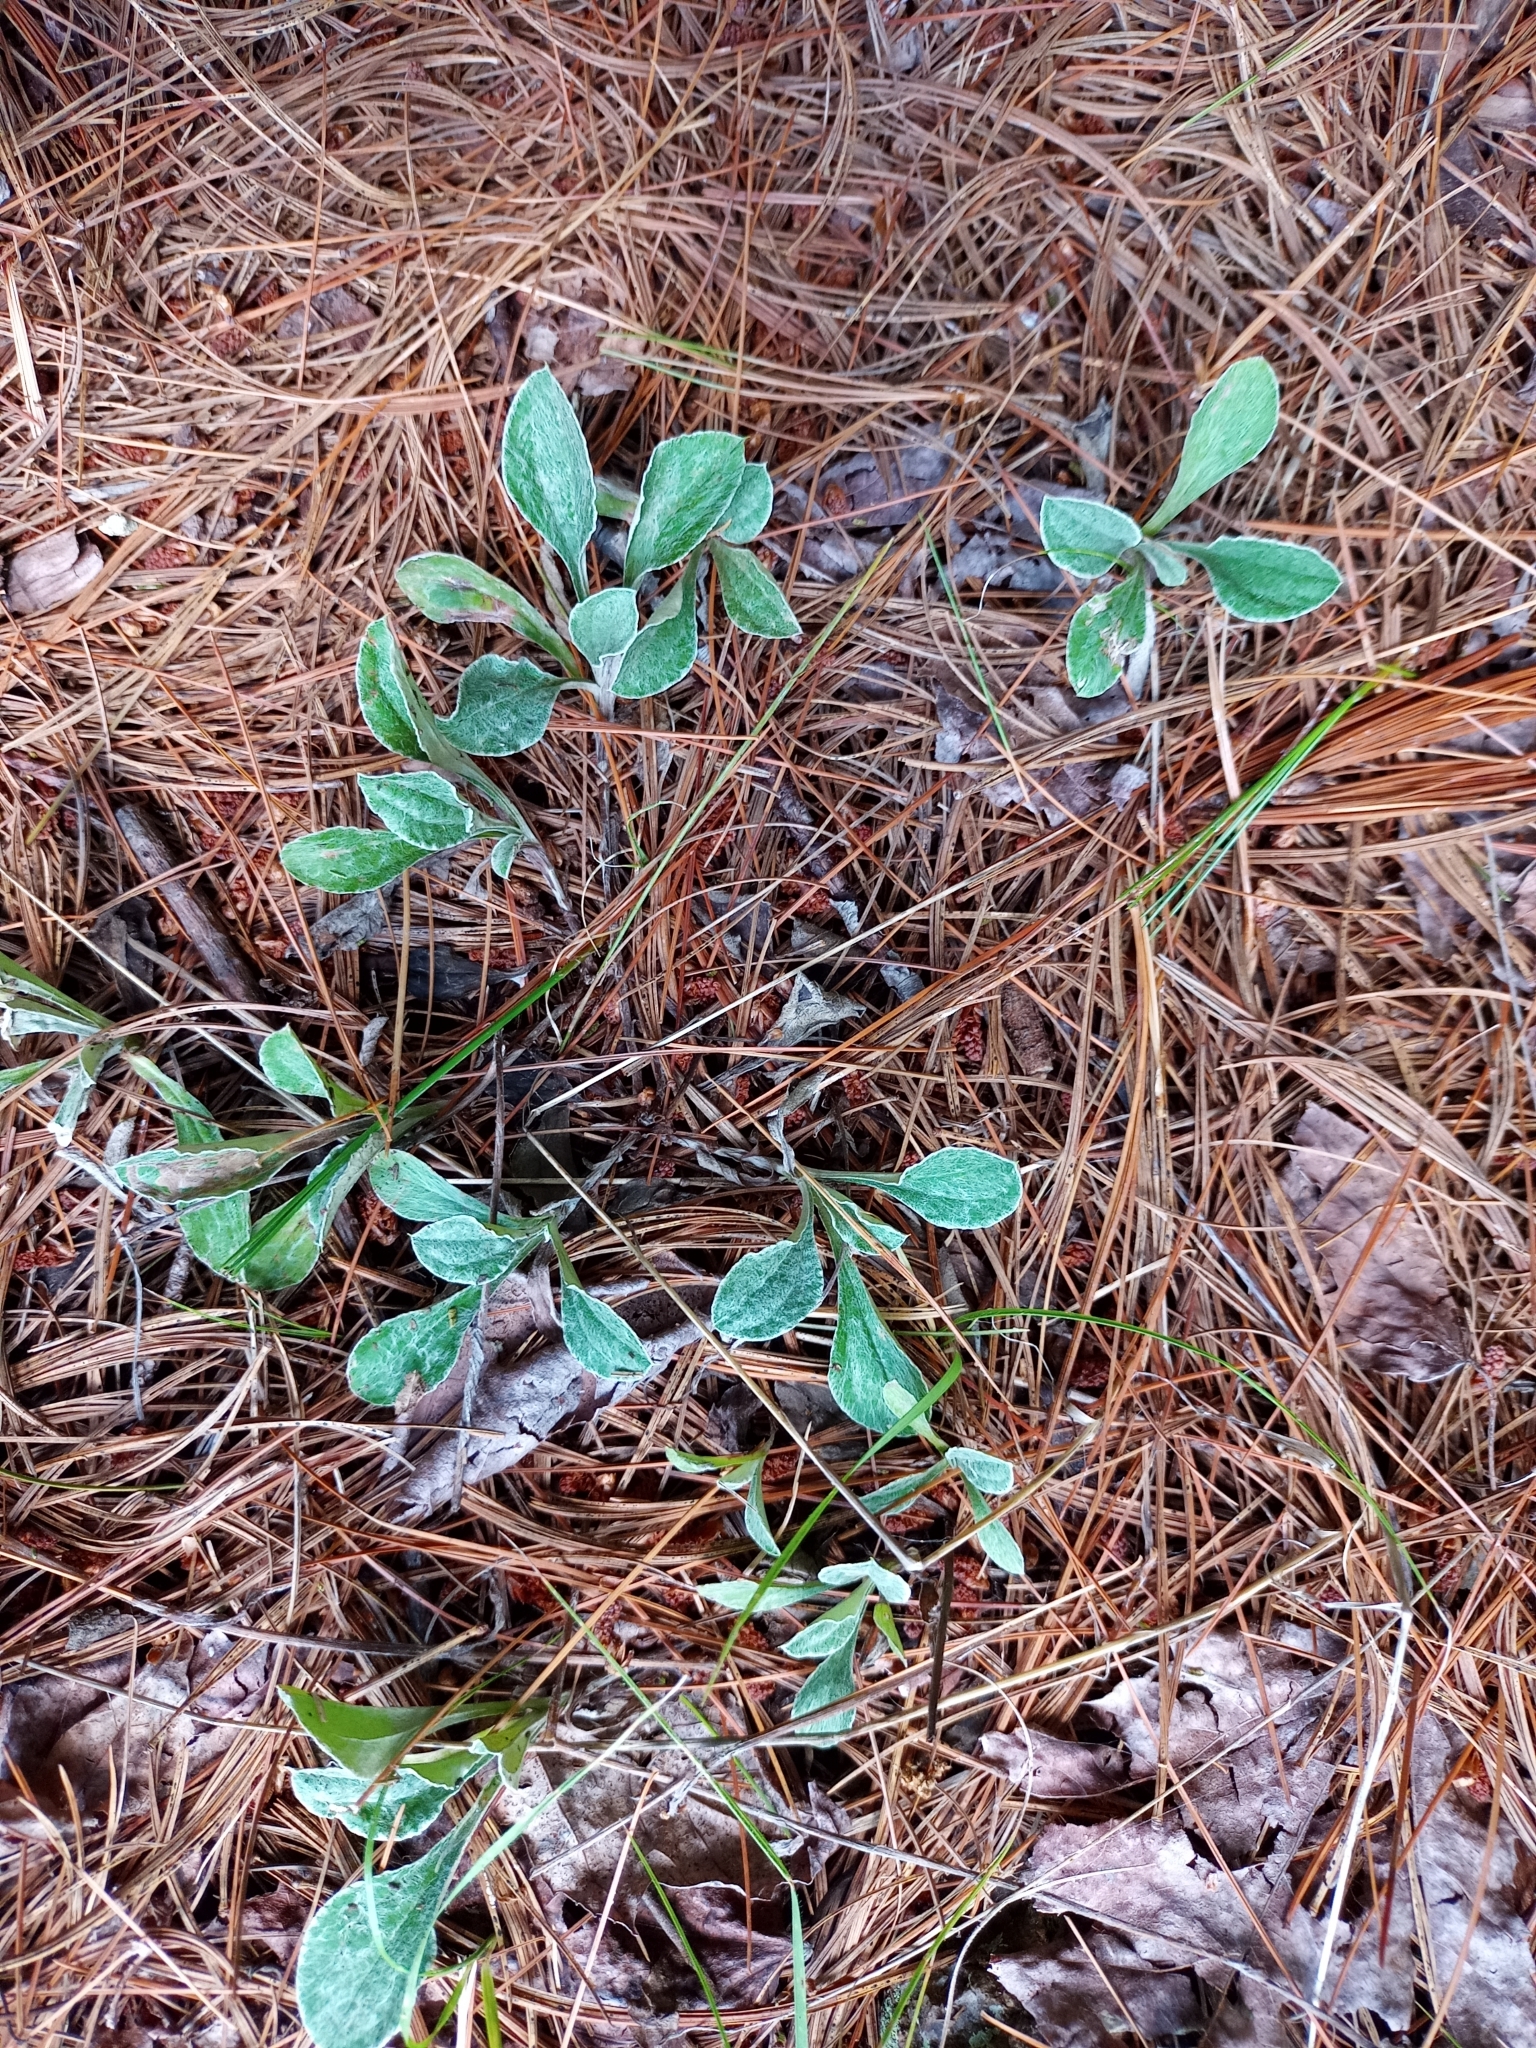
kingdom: Plantae
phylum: Tracheophyta
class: Magnoliopsida
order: Asterales
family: Asteraceae
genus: Antennaria
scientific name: Antennaria parlinii
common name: Parlin's pussytoes
